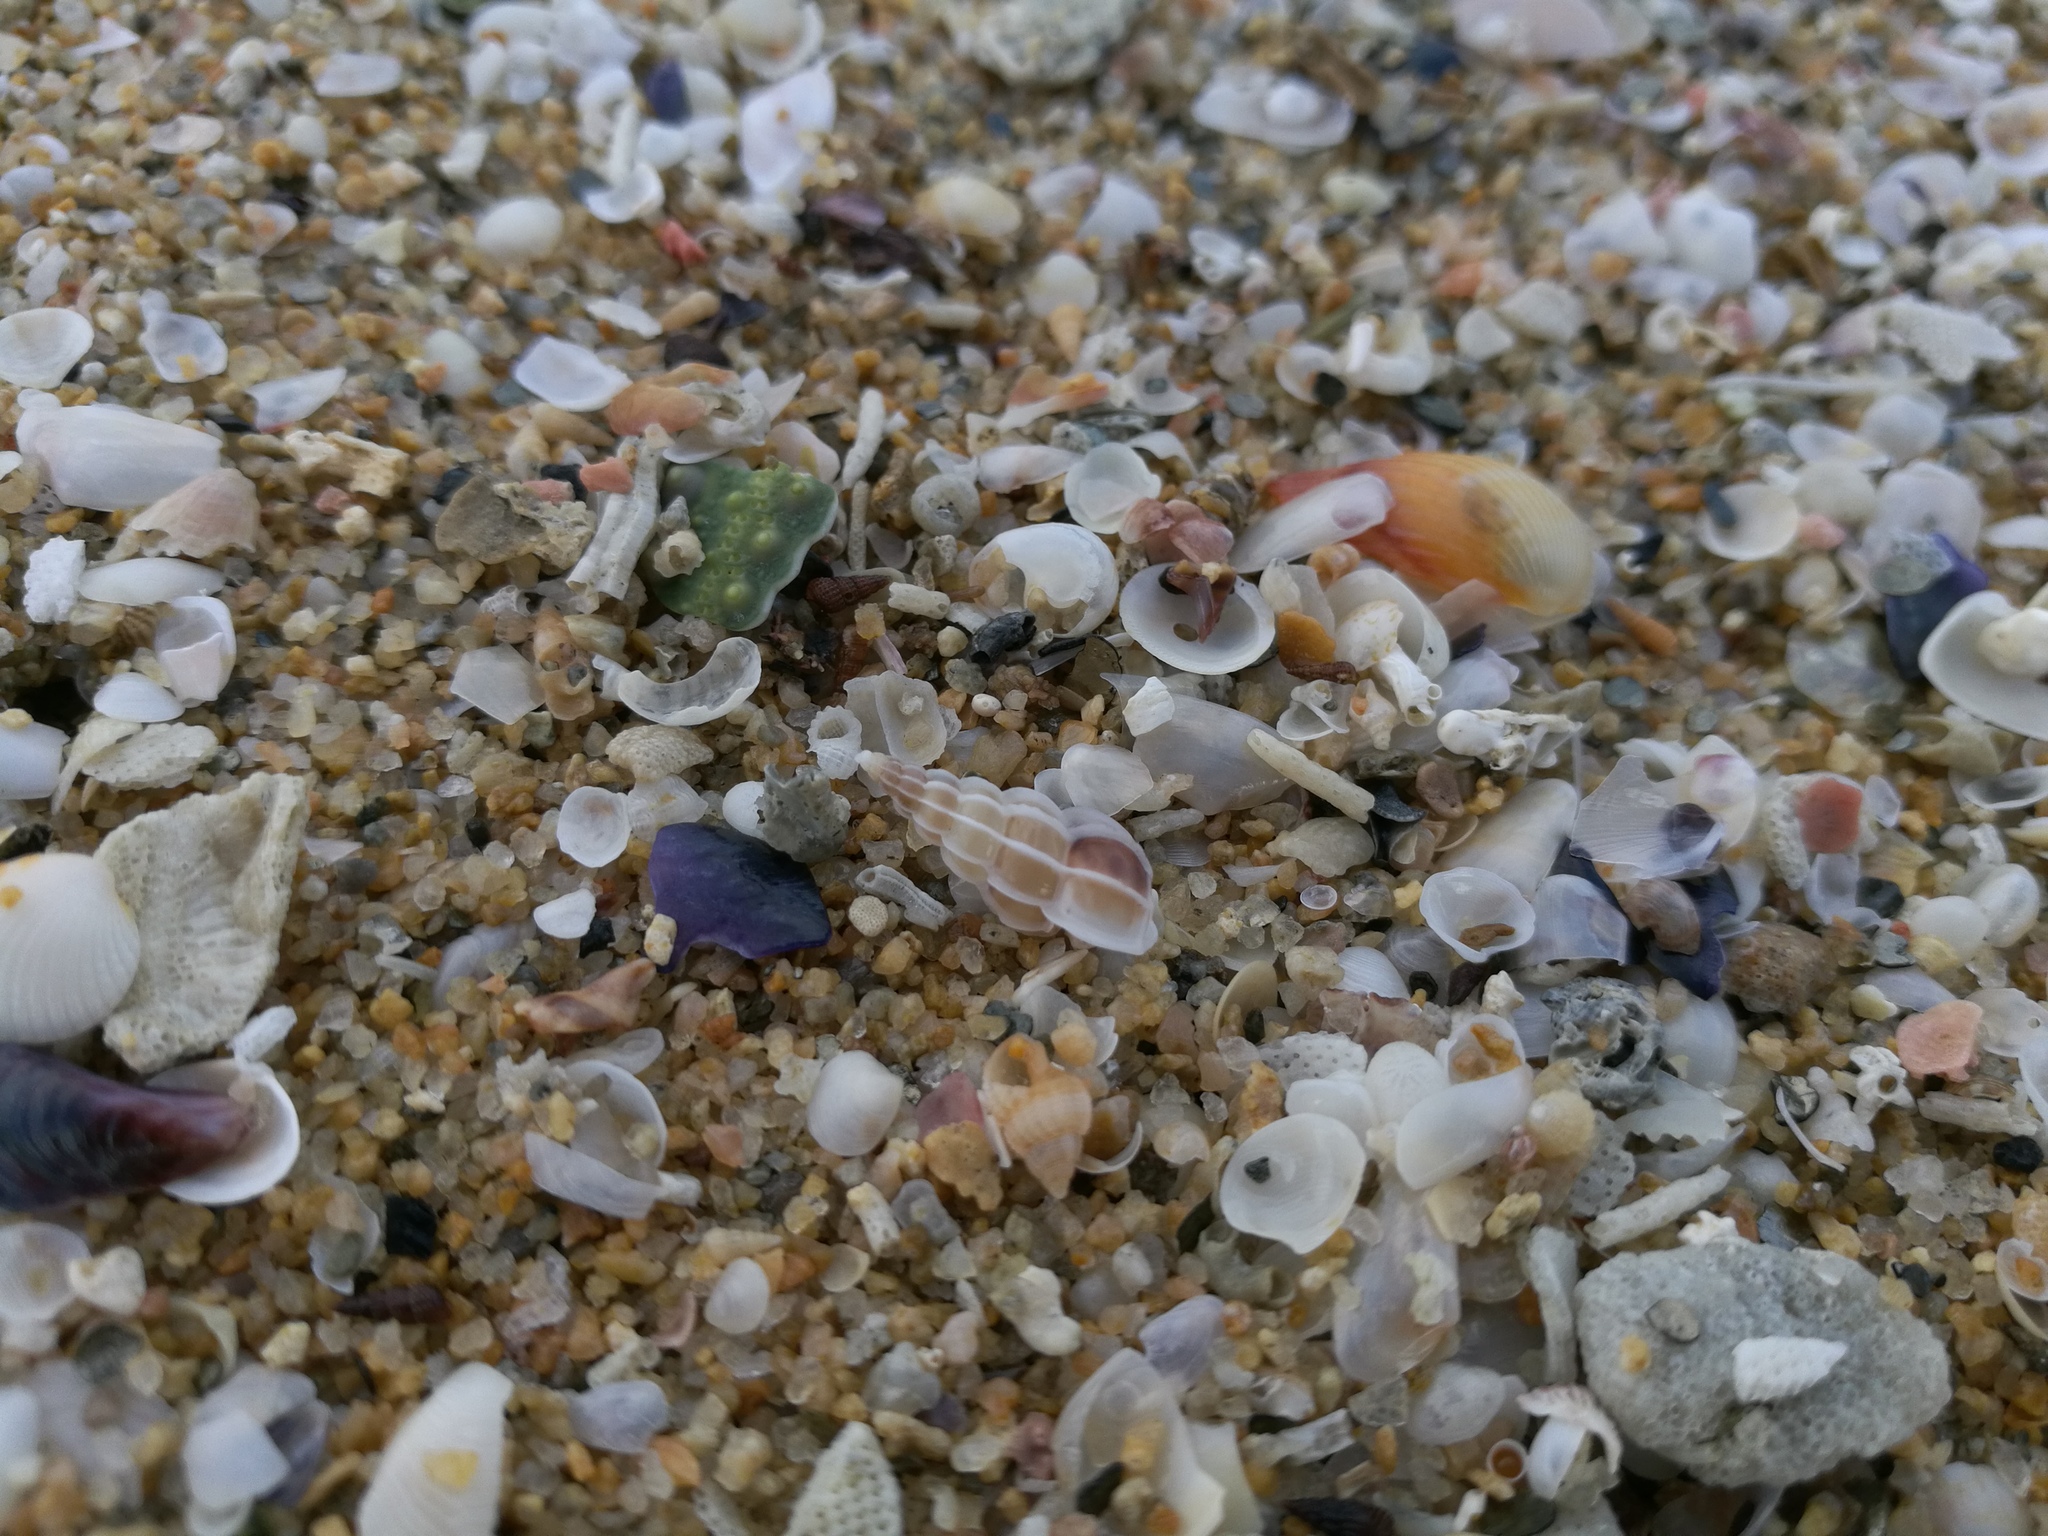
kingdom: Animalia
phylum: Mollusca
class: Gastropoda
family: Epitoniidae
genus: Gyroscala
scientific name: Gyroscala commutata
